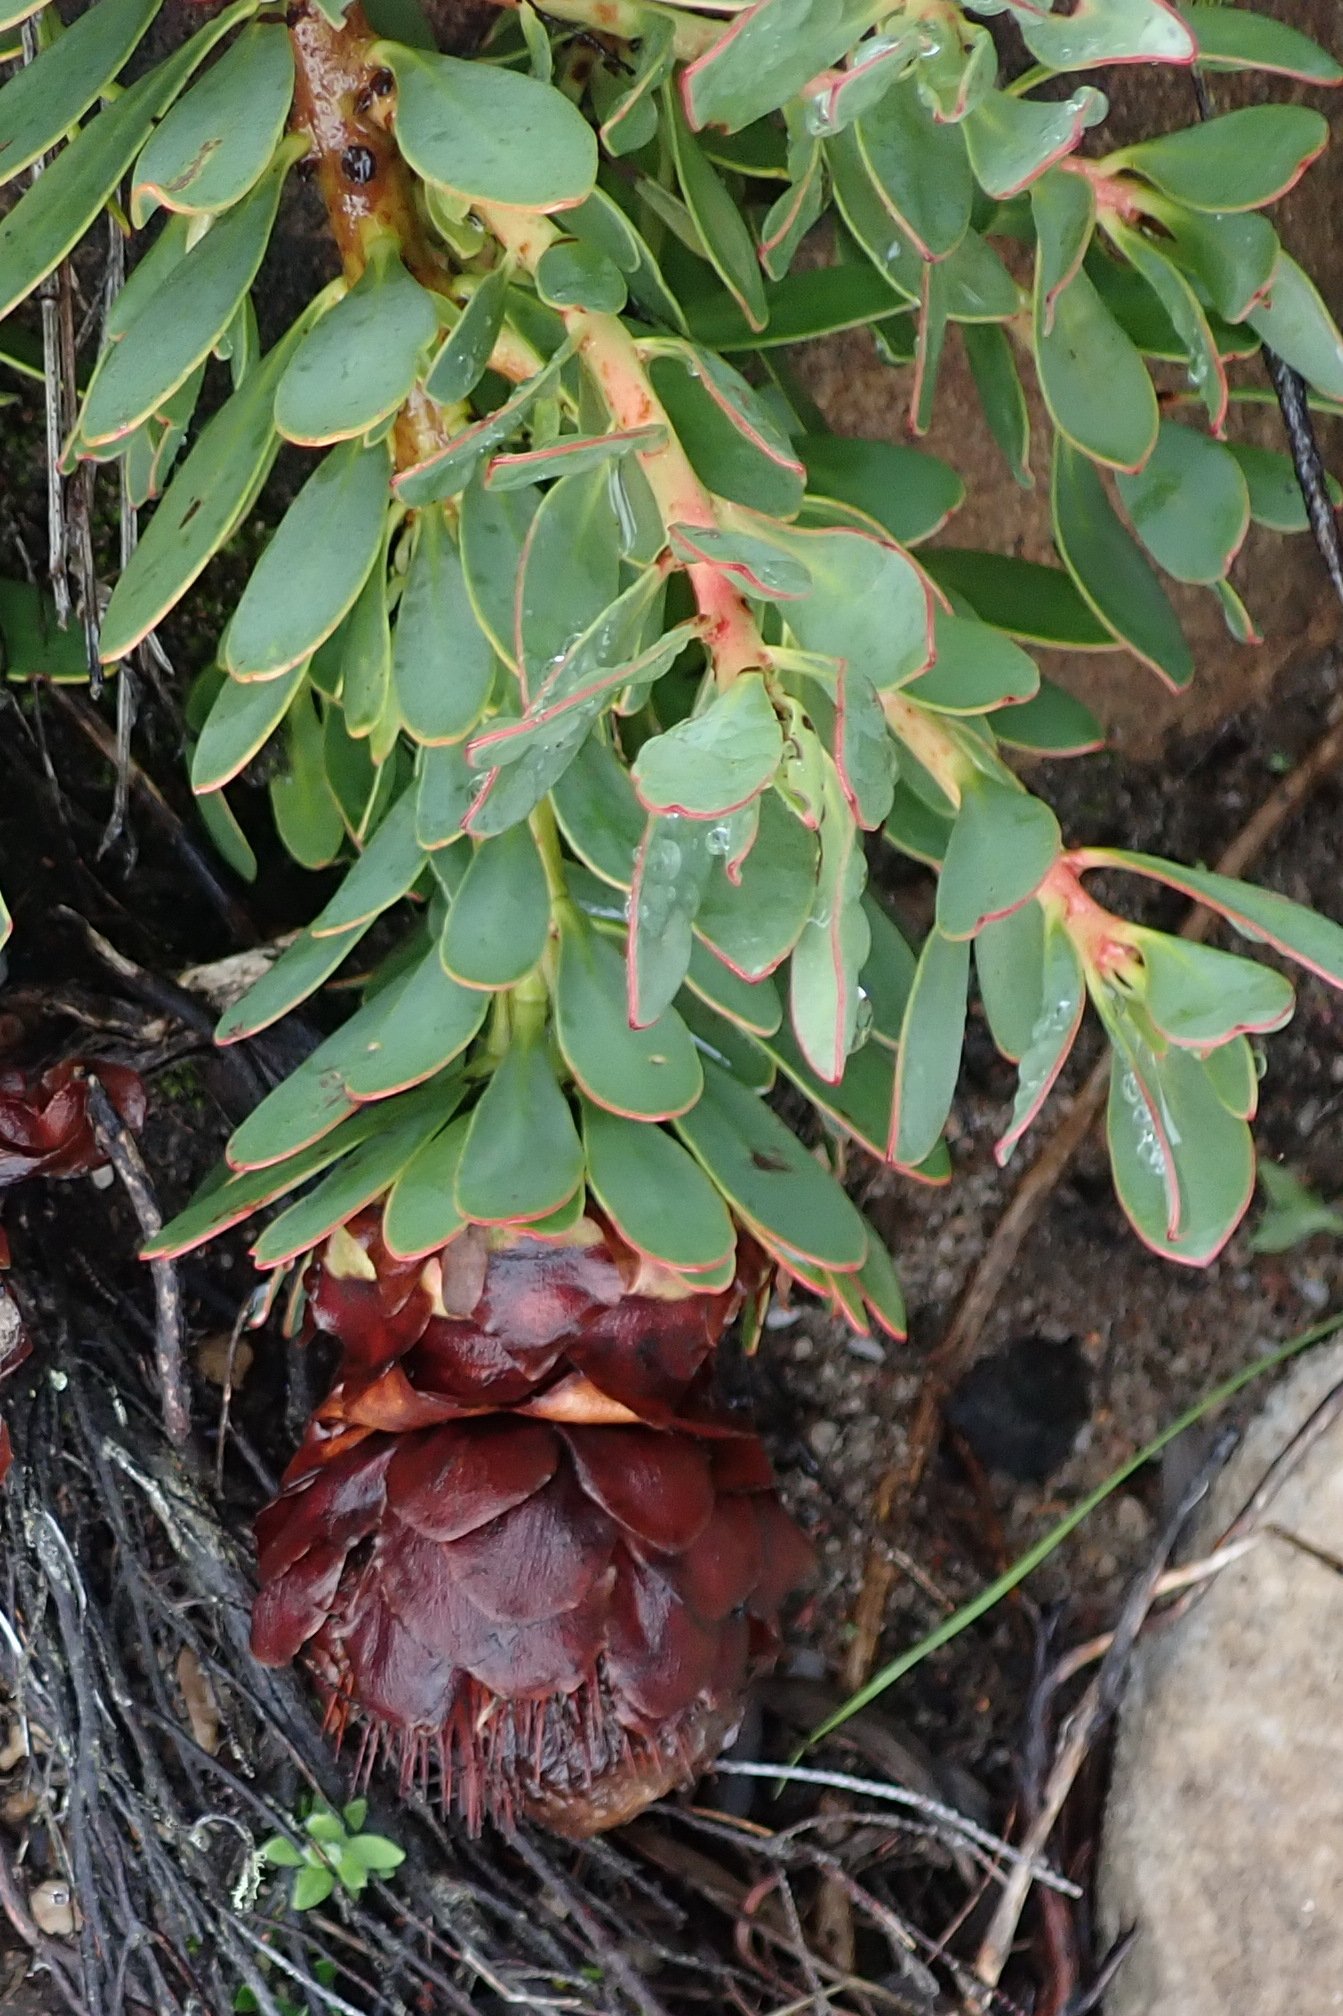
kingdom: Plantae
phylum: Tracheophyta
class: Magnoliopsida
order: Proteales
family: Proteaceae
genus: Protea
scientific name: Protea venusta
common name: Cascade sugarbush
